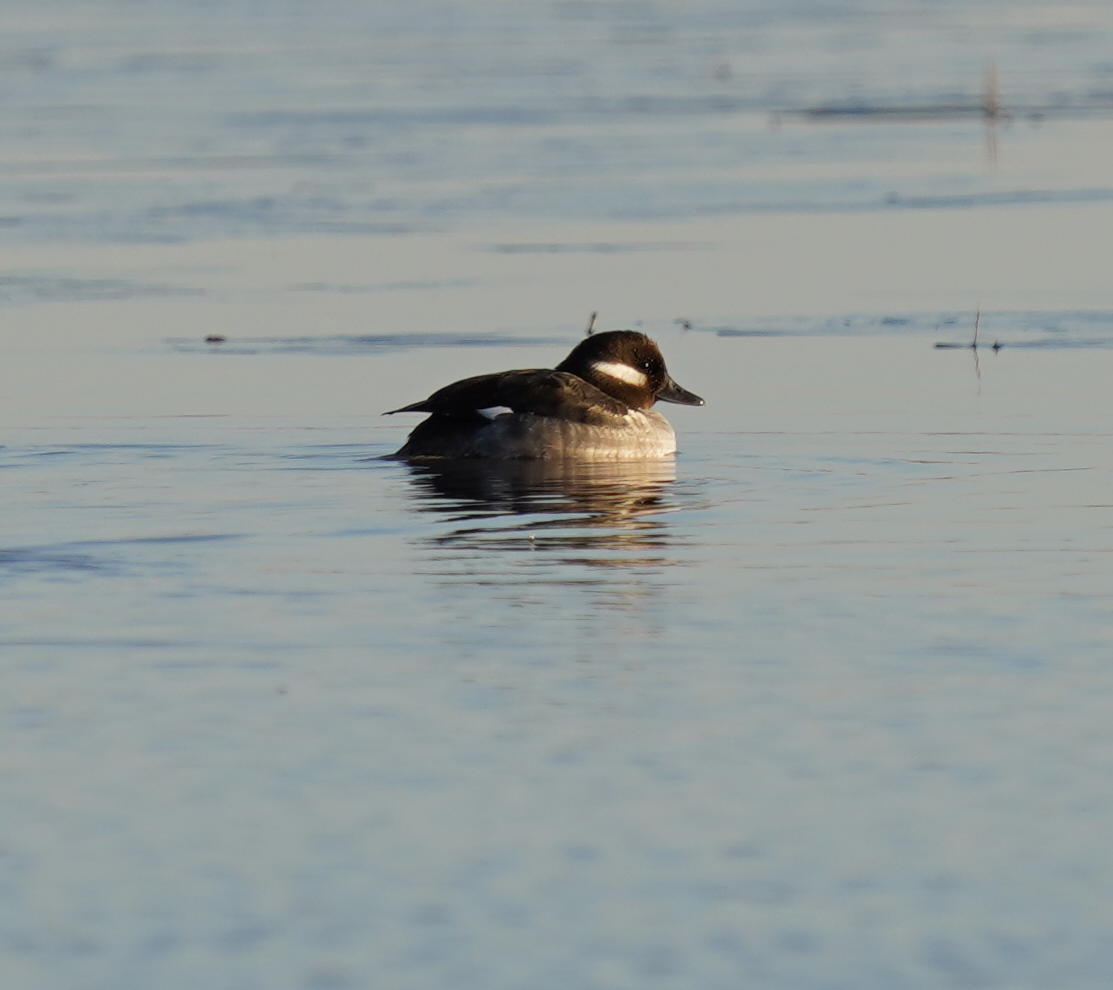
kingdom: Animalia
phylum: Chordata
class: Aves
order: Anseriformes
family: Anatidae
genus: Bucephala
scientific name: Bucephala albeola
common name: Bufflehead
